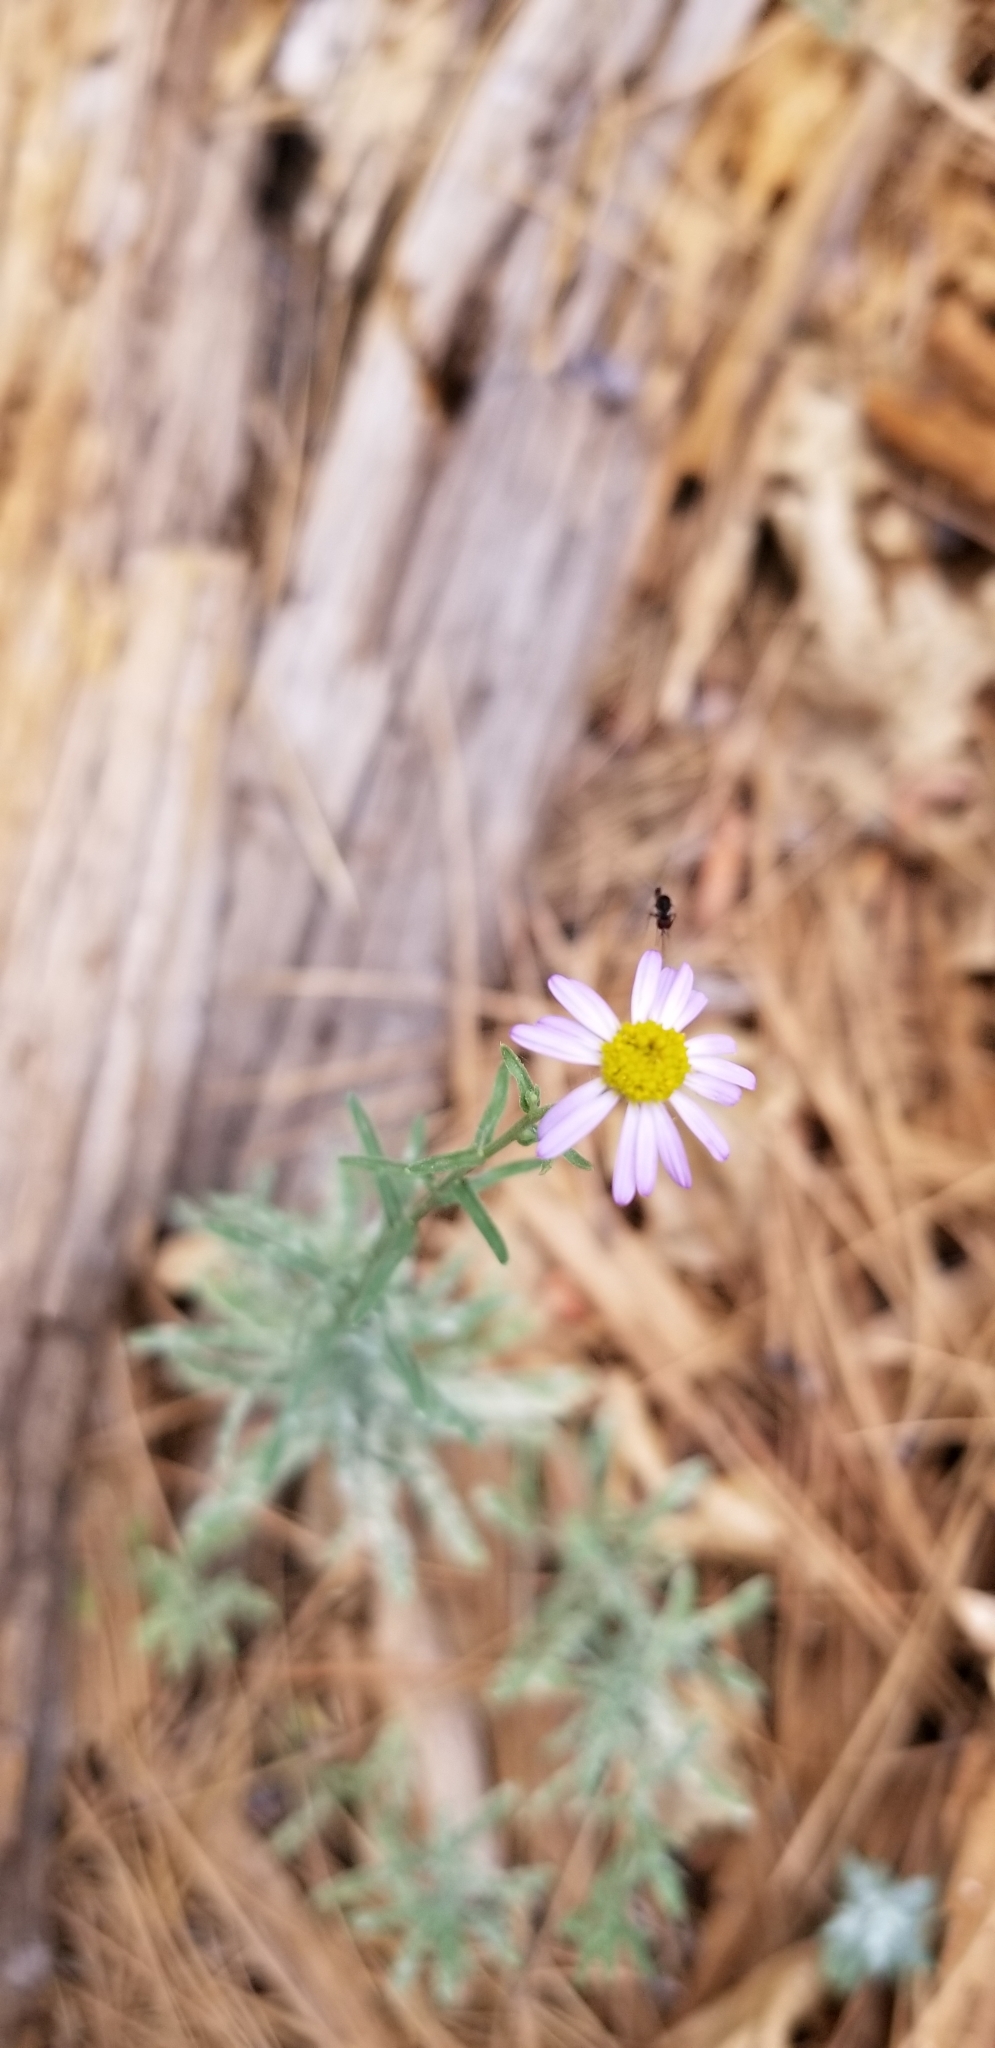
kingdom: Plantae
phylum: Tracheophyta
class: Magnoliopsida
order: Asterales
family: Asteraceae
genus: Corethrogyne
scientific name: Corethrogyne filaginifolia
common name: Sand-aster
